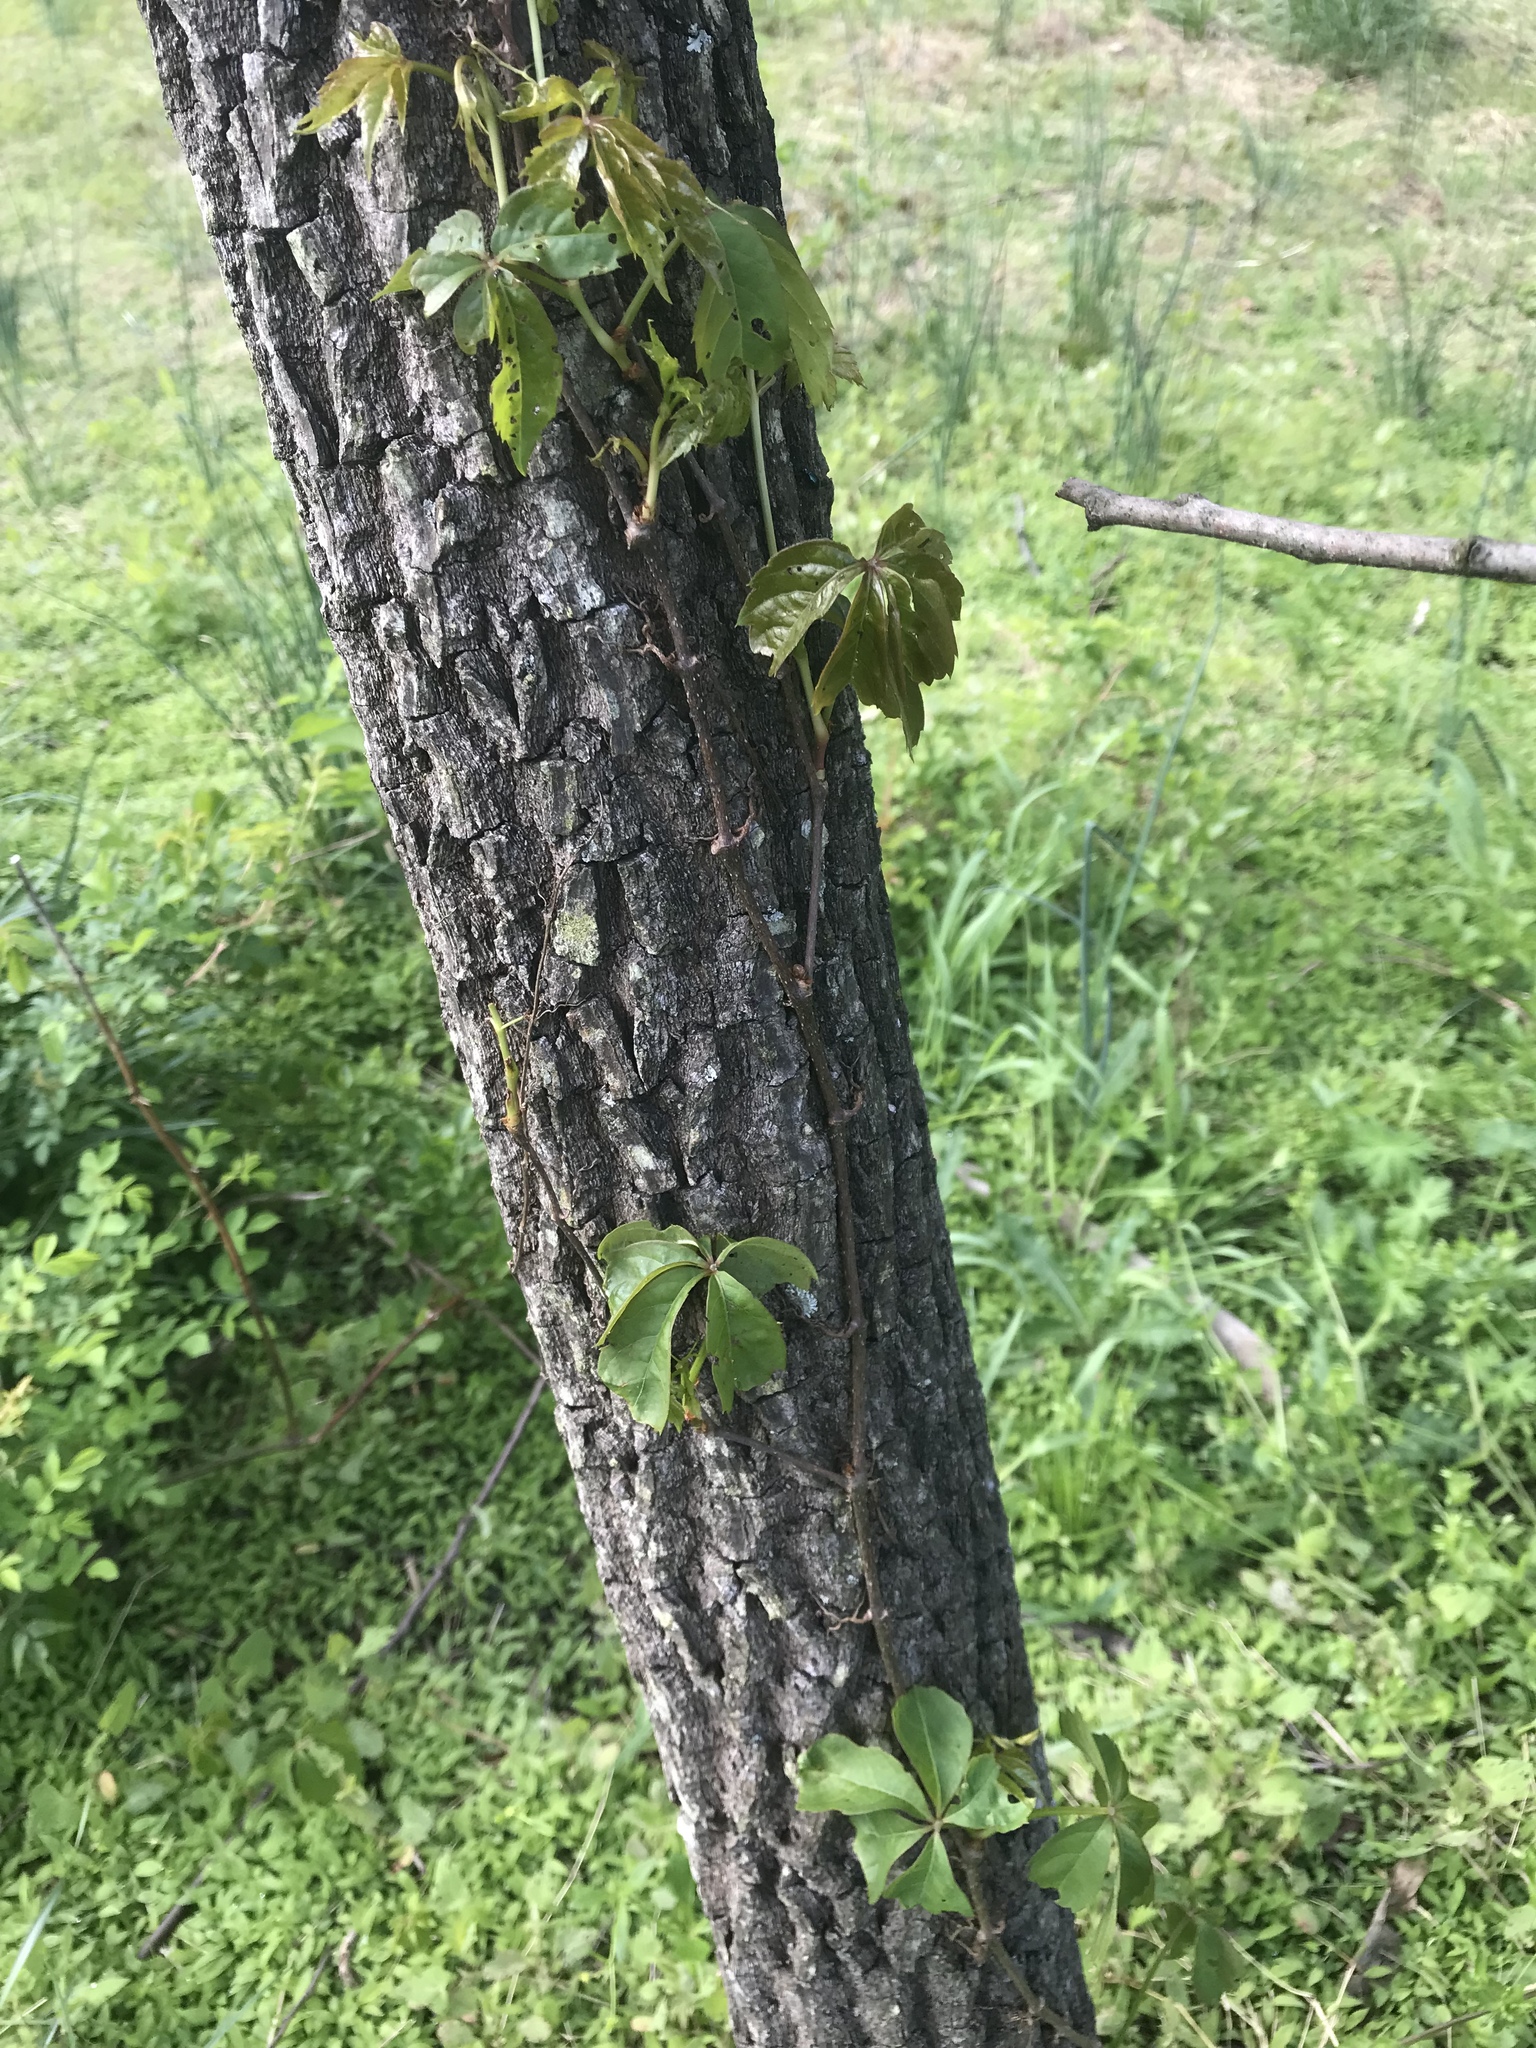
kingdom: Plantae
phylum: Tracheophyta
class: Magnoliopsida
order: Vitales
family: Vitaceae
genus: Parthenocissus
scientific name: Parthenocissus quinquefolia
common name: Virginia-creeper
